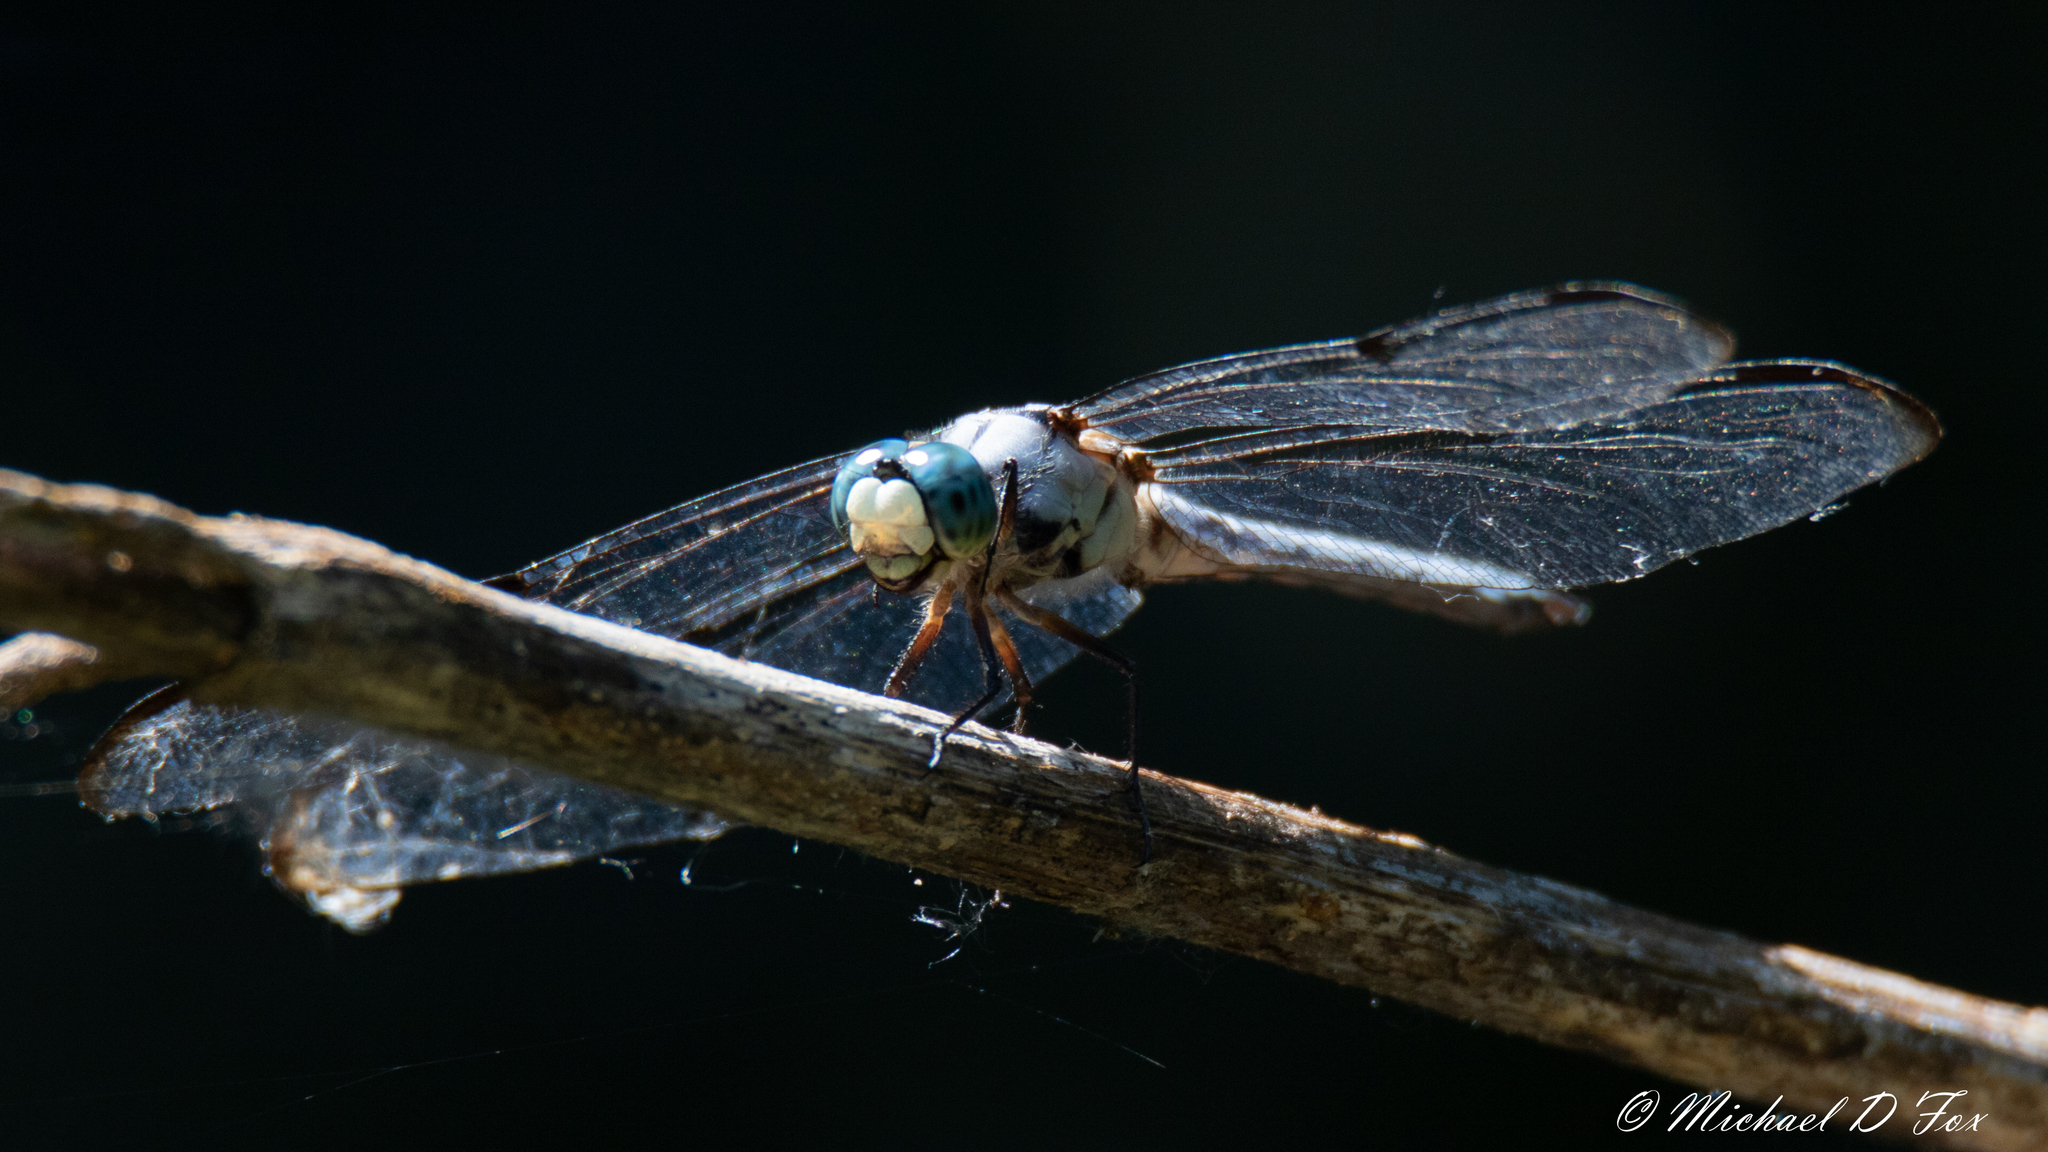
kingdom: Animalia
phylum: Arthropoda
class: Insecta
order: Odonata
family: Libellulidae
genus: Libellula
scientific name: Libellula vibrans
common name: Great blue skimmer
